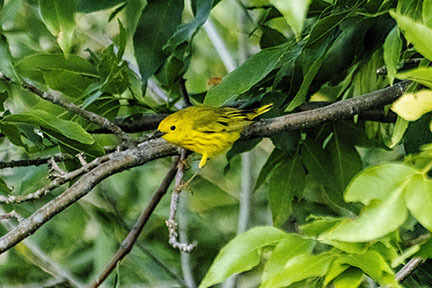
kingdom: Animalia
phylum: Chordata
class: Aves
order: Passeriformes
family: Parulidae
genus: Setophaga
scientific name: Setophaga petechia
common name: Yellow warbler
